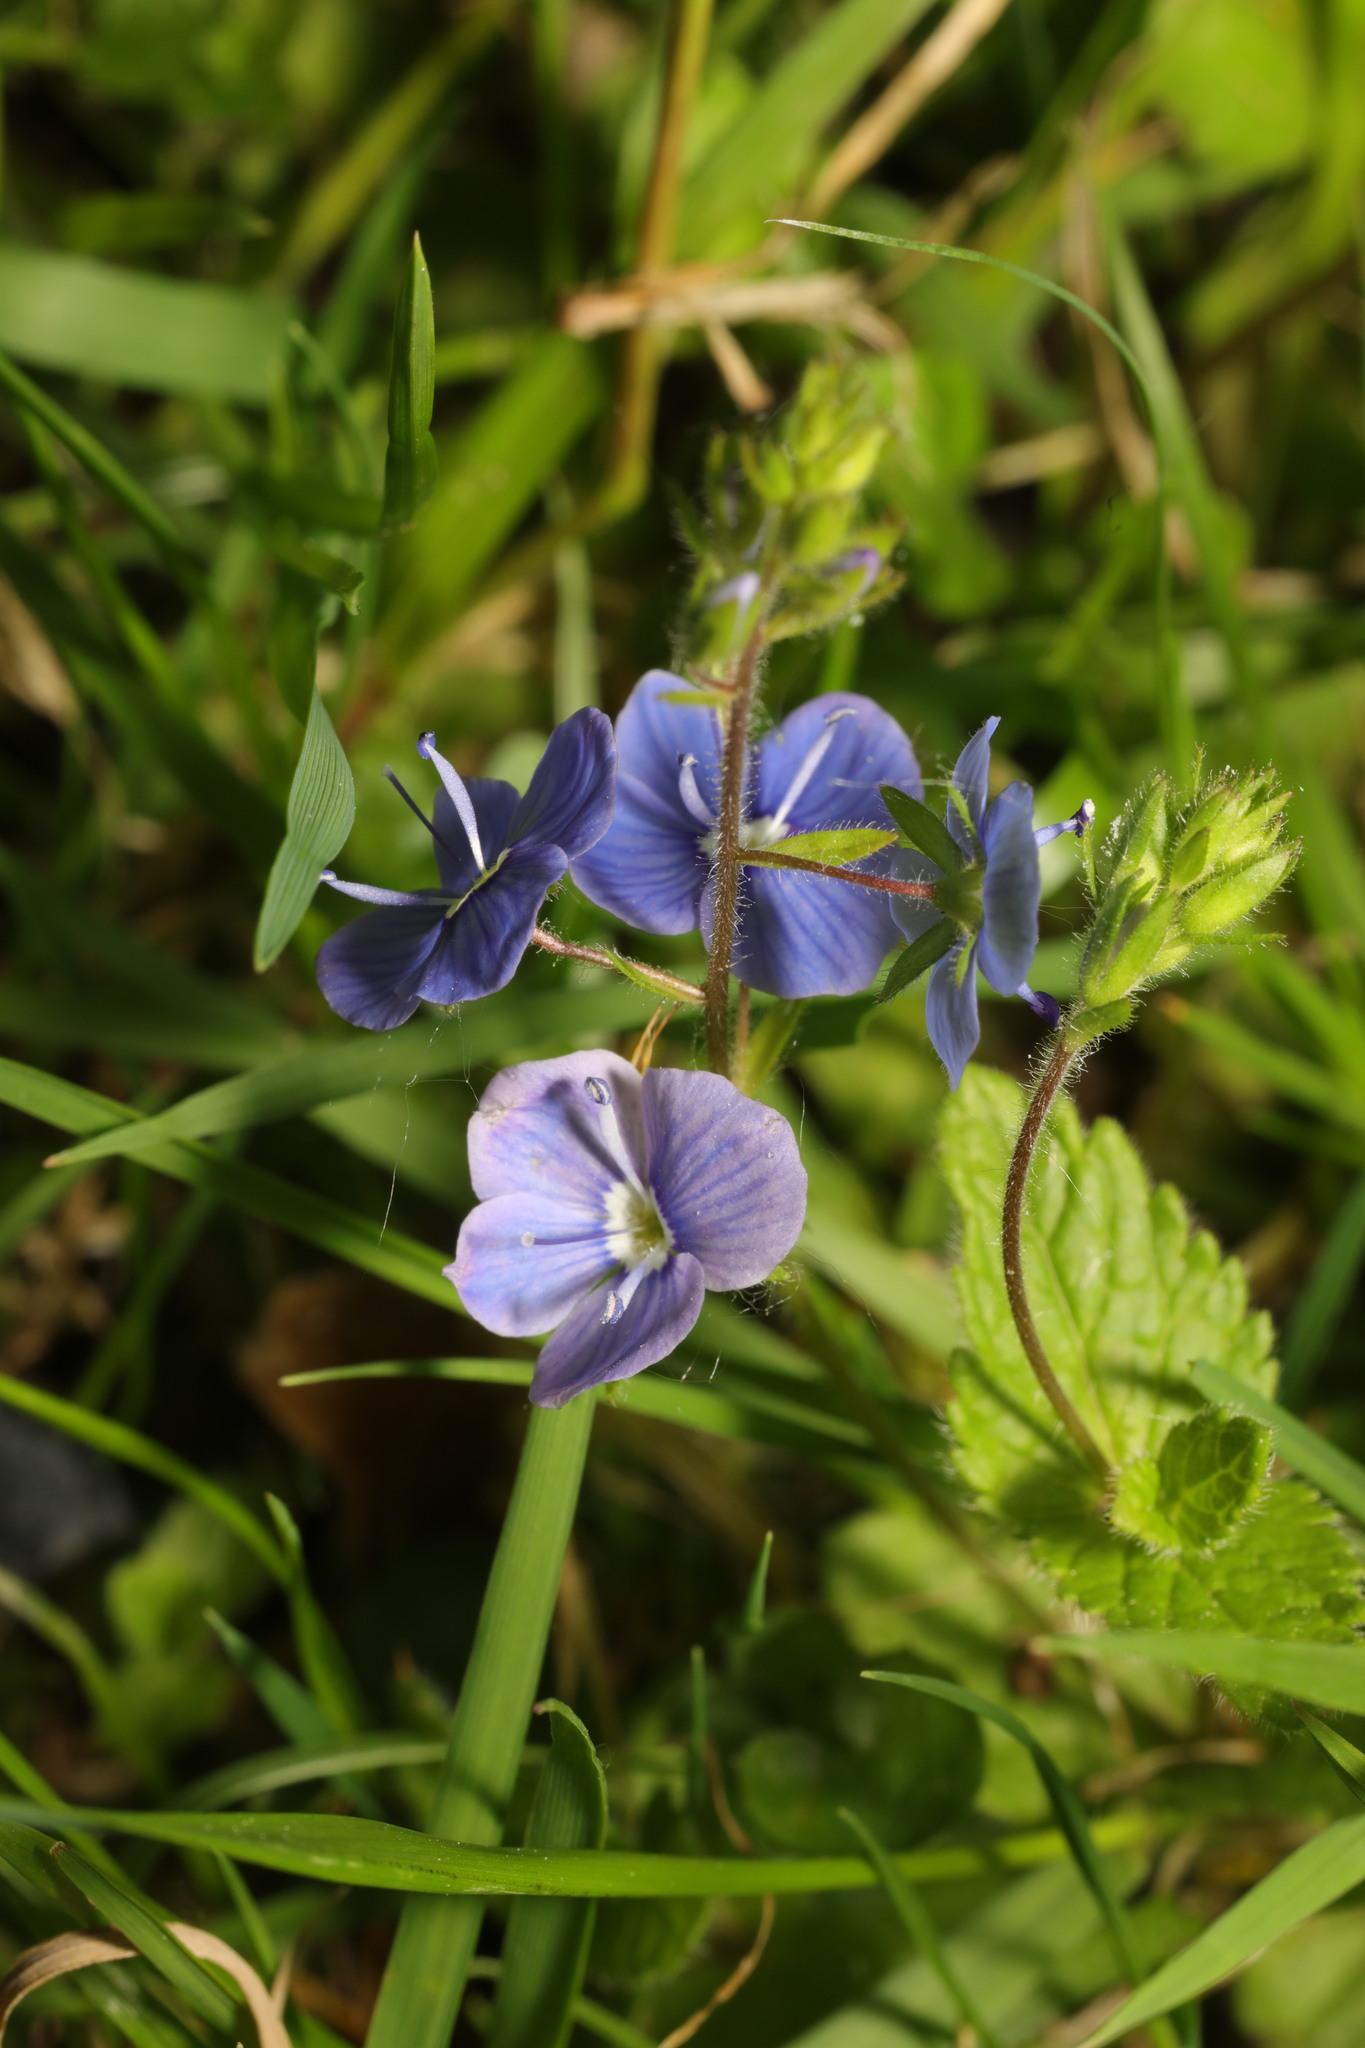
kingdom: Plantae
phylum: Tracheophyta
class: Magnoliopsida
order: Lamiales
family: Plantaginaceae
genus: Veronica
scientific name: Veronica chamaedrys
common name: Germander speedwell
